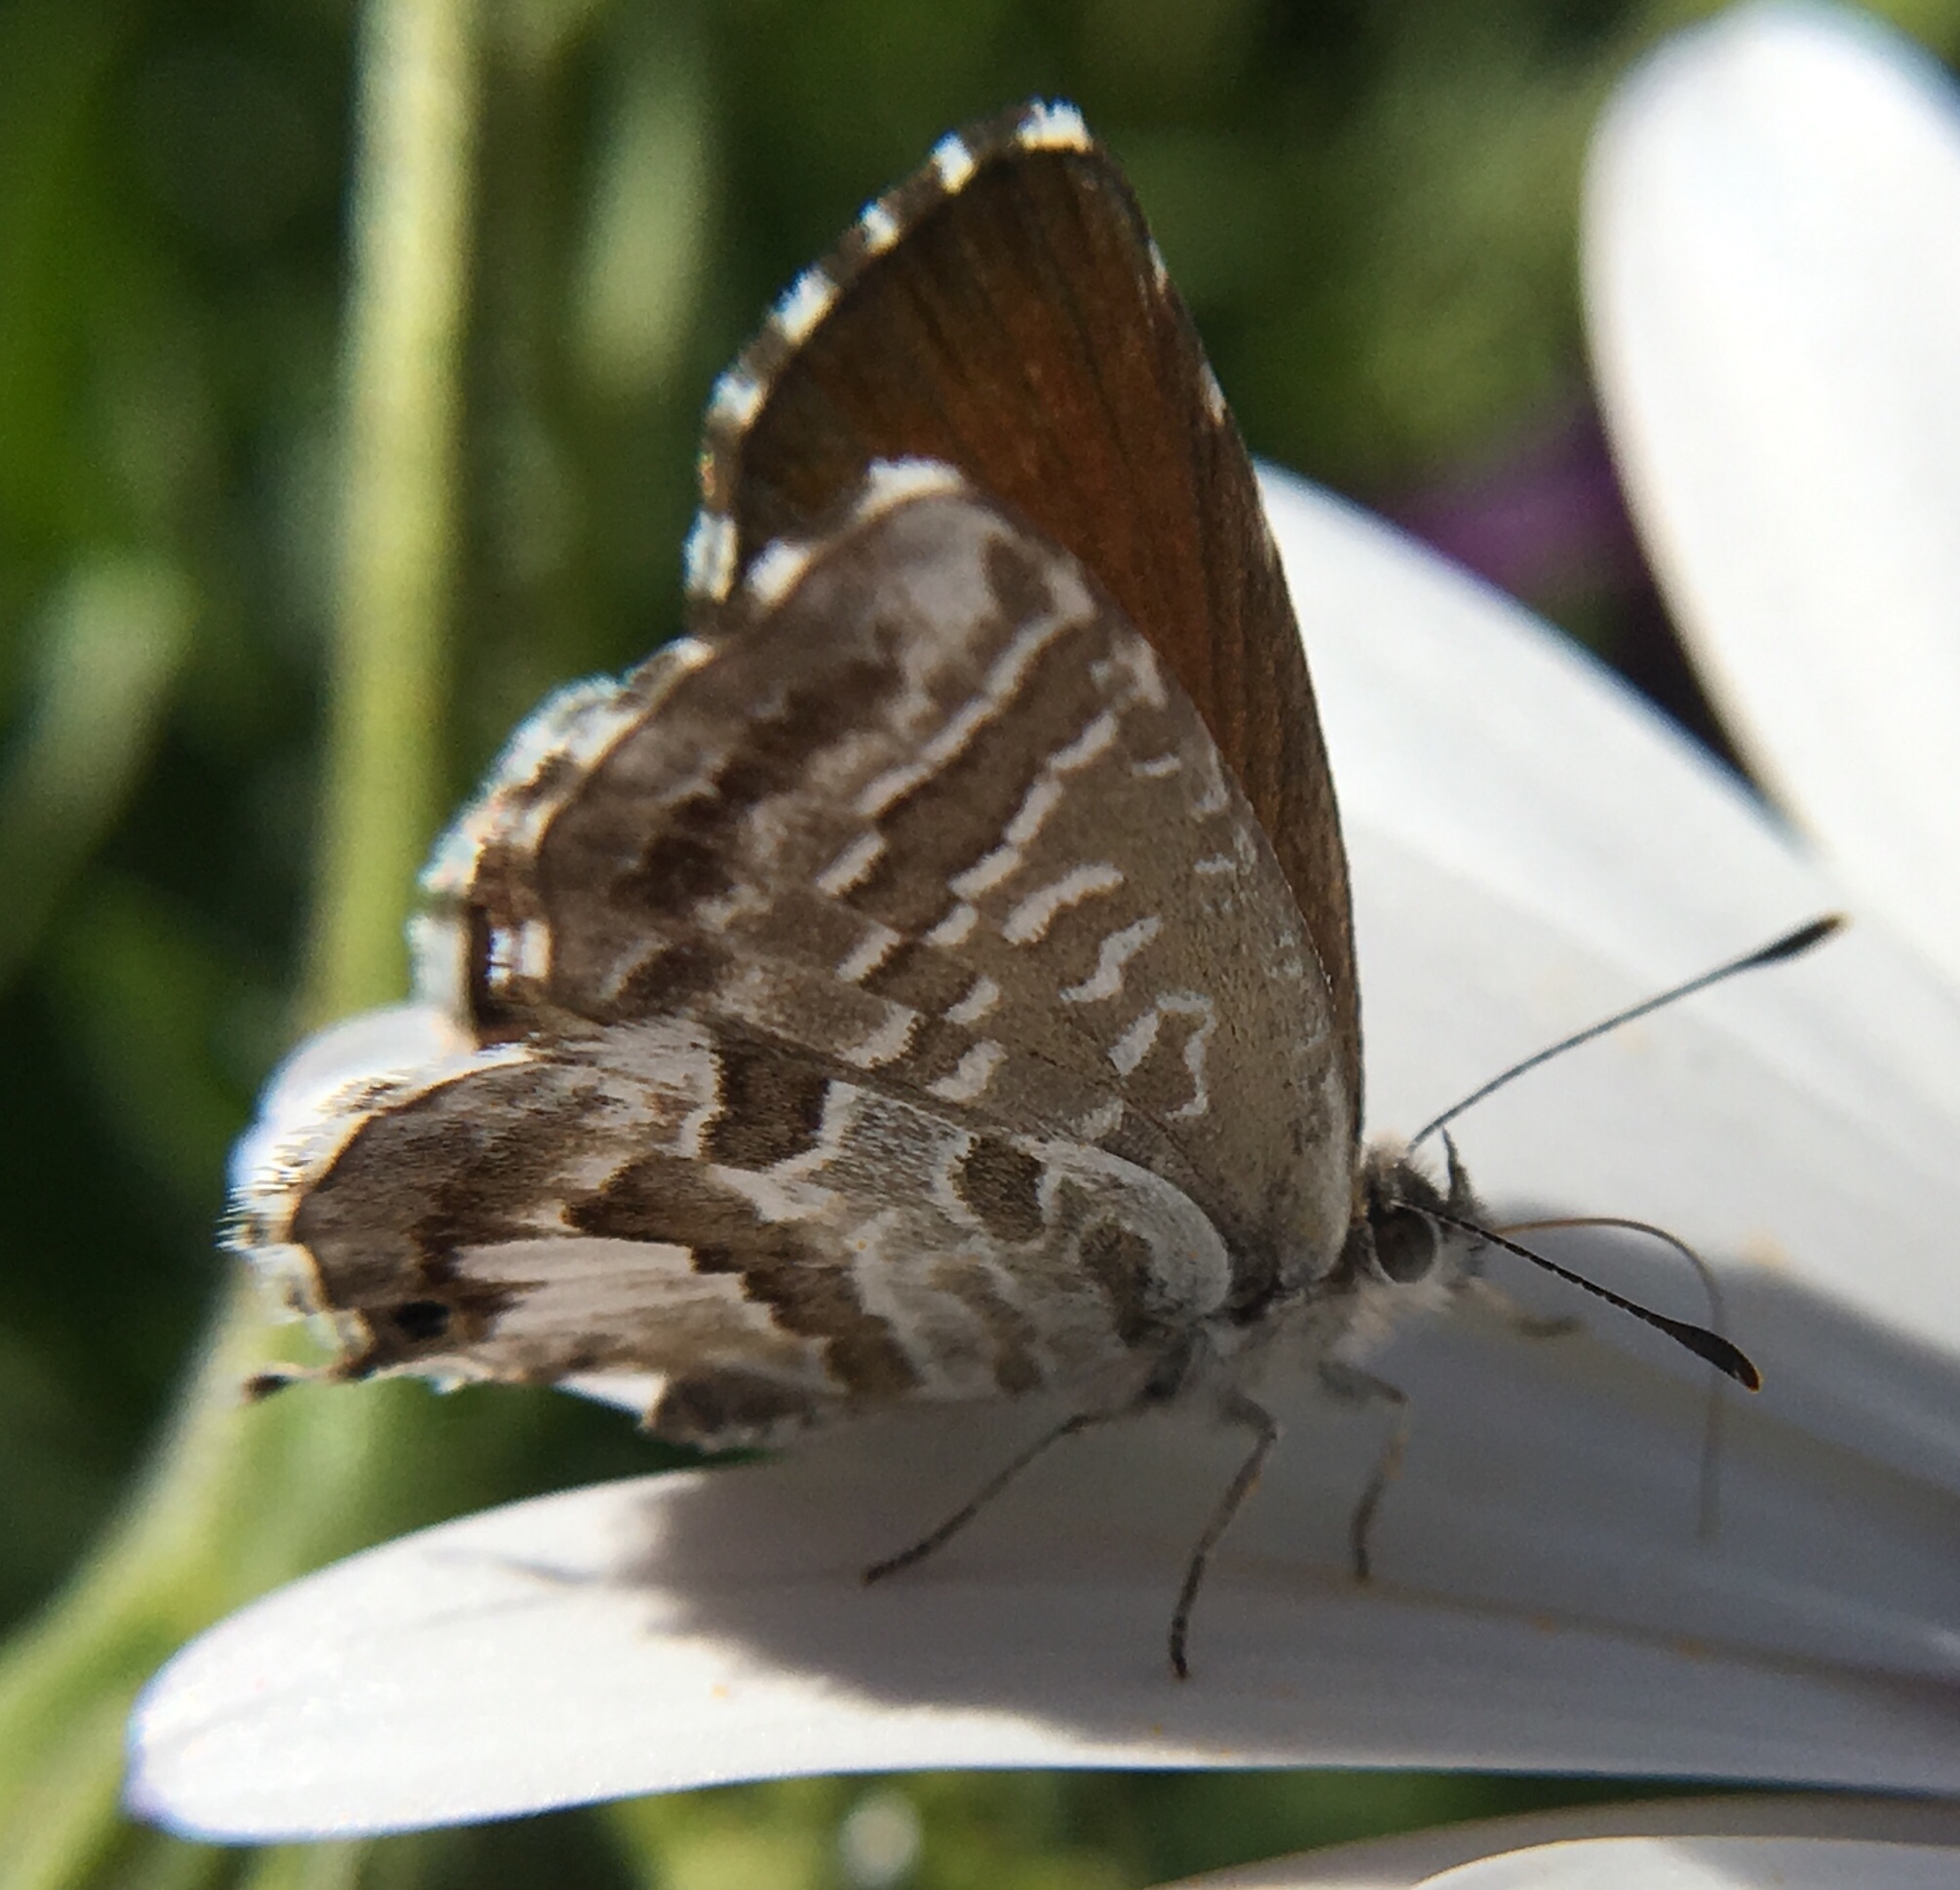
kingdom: Animalia
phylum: Arthropoda
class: Insecta
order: Lepidoptera
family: Lycaenidae
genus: Cacyreus
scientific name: Cacyreus marshalli
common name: Geranium bronze
